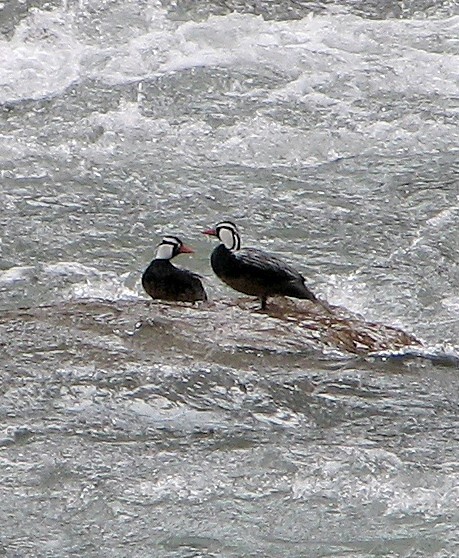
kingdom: Animalia
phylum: Chordata
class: Aves
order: Anseriformes
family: Anatidae
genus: Merganetta
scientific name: Merganetta armata
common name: Torrent duck
